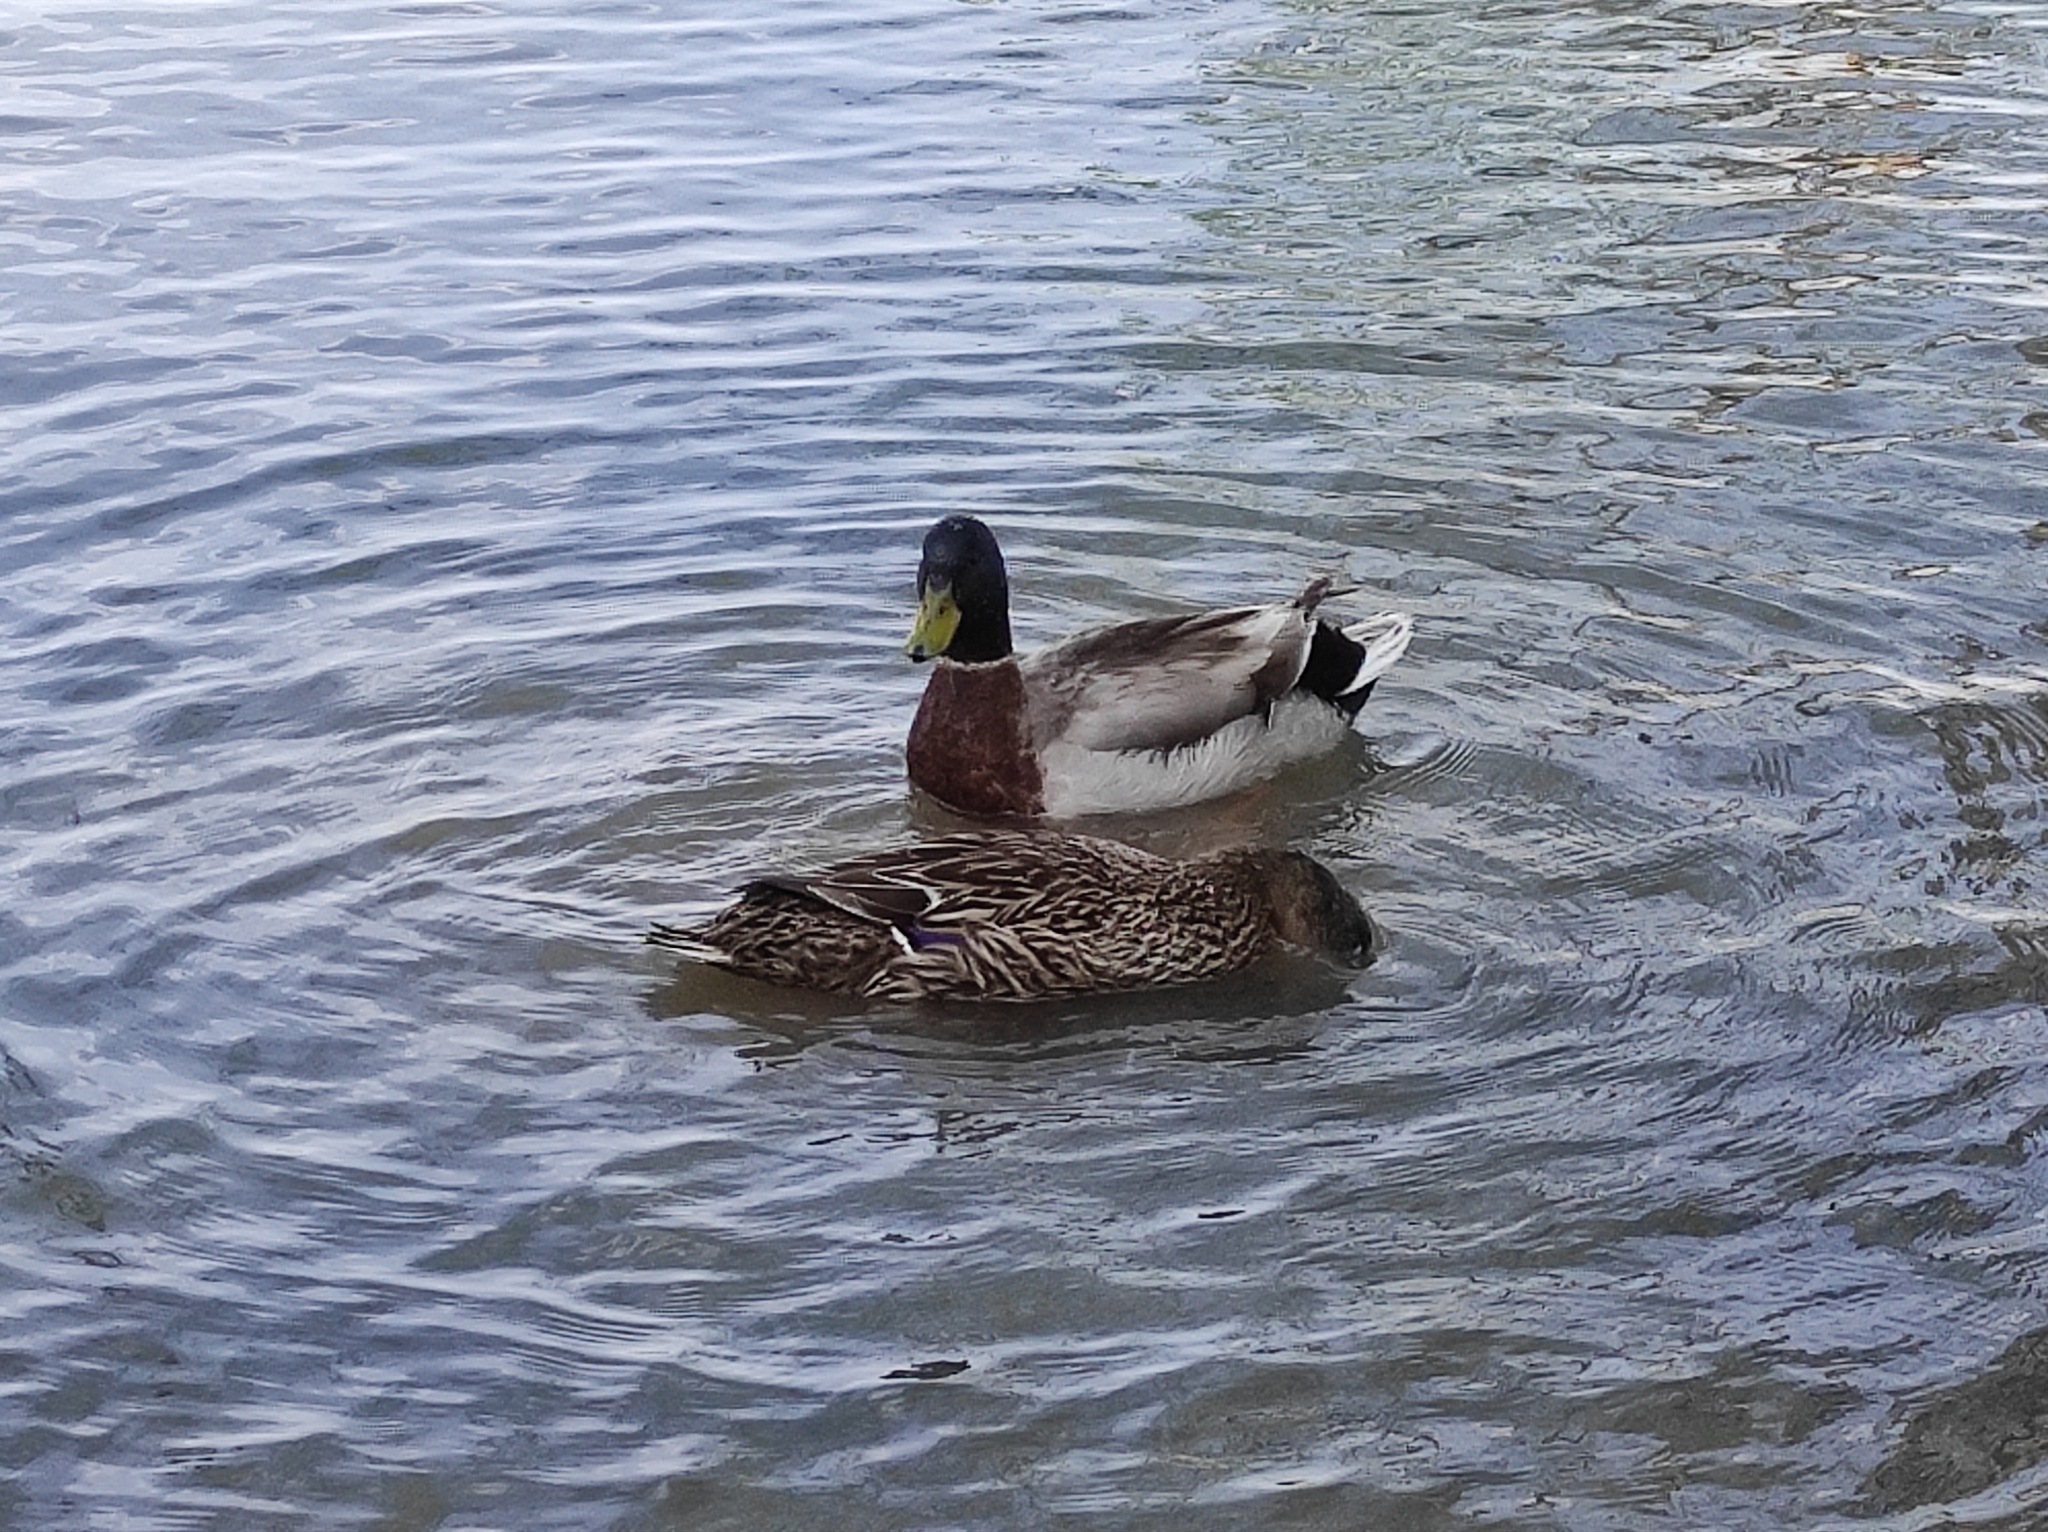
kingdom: Animalia
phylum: Chordata
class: Aves
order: Anseriformes
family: Anatidae
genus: Anas
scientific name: Anas platyrhynchos
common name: Mallard
